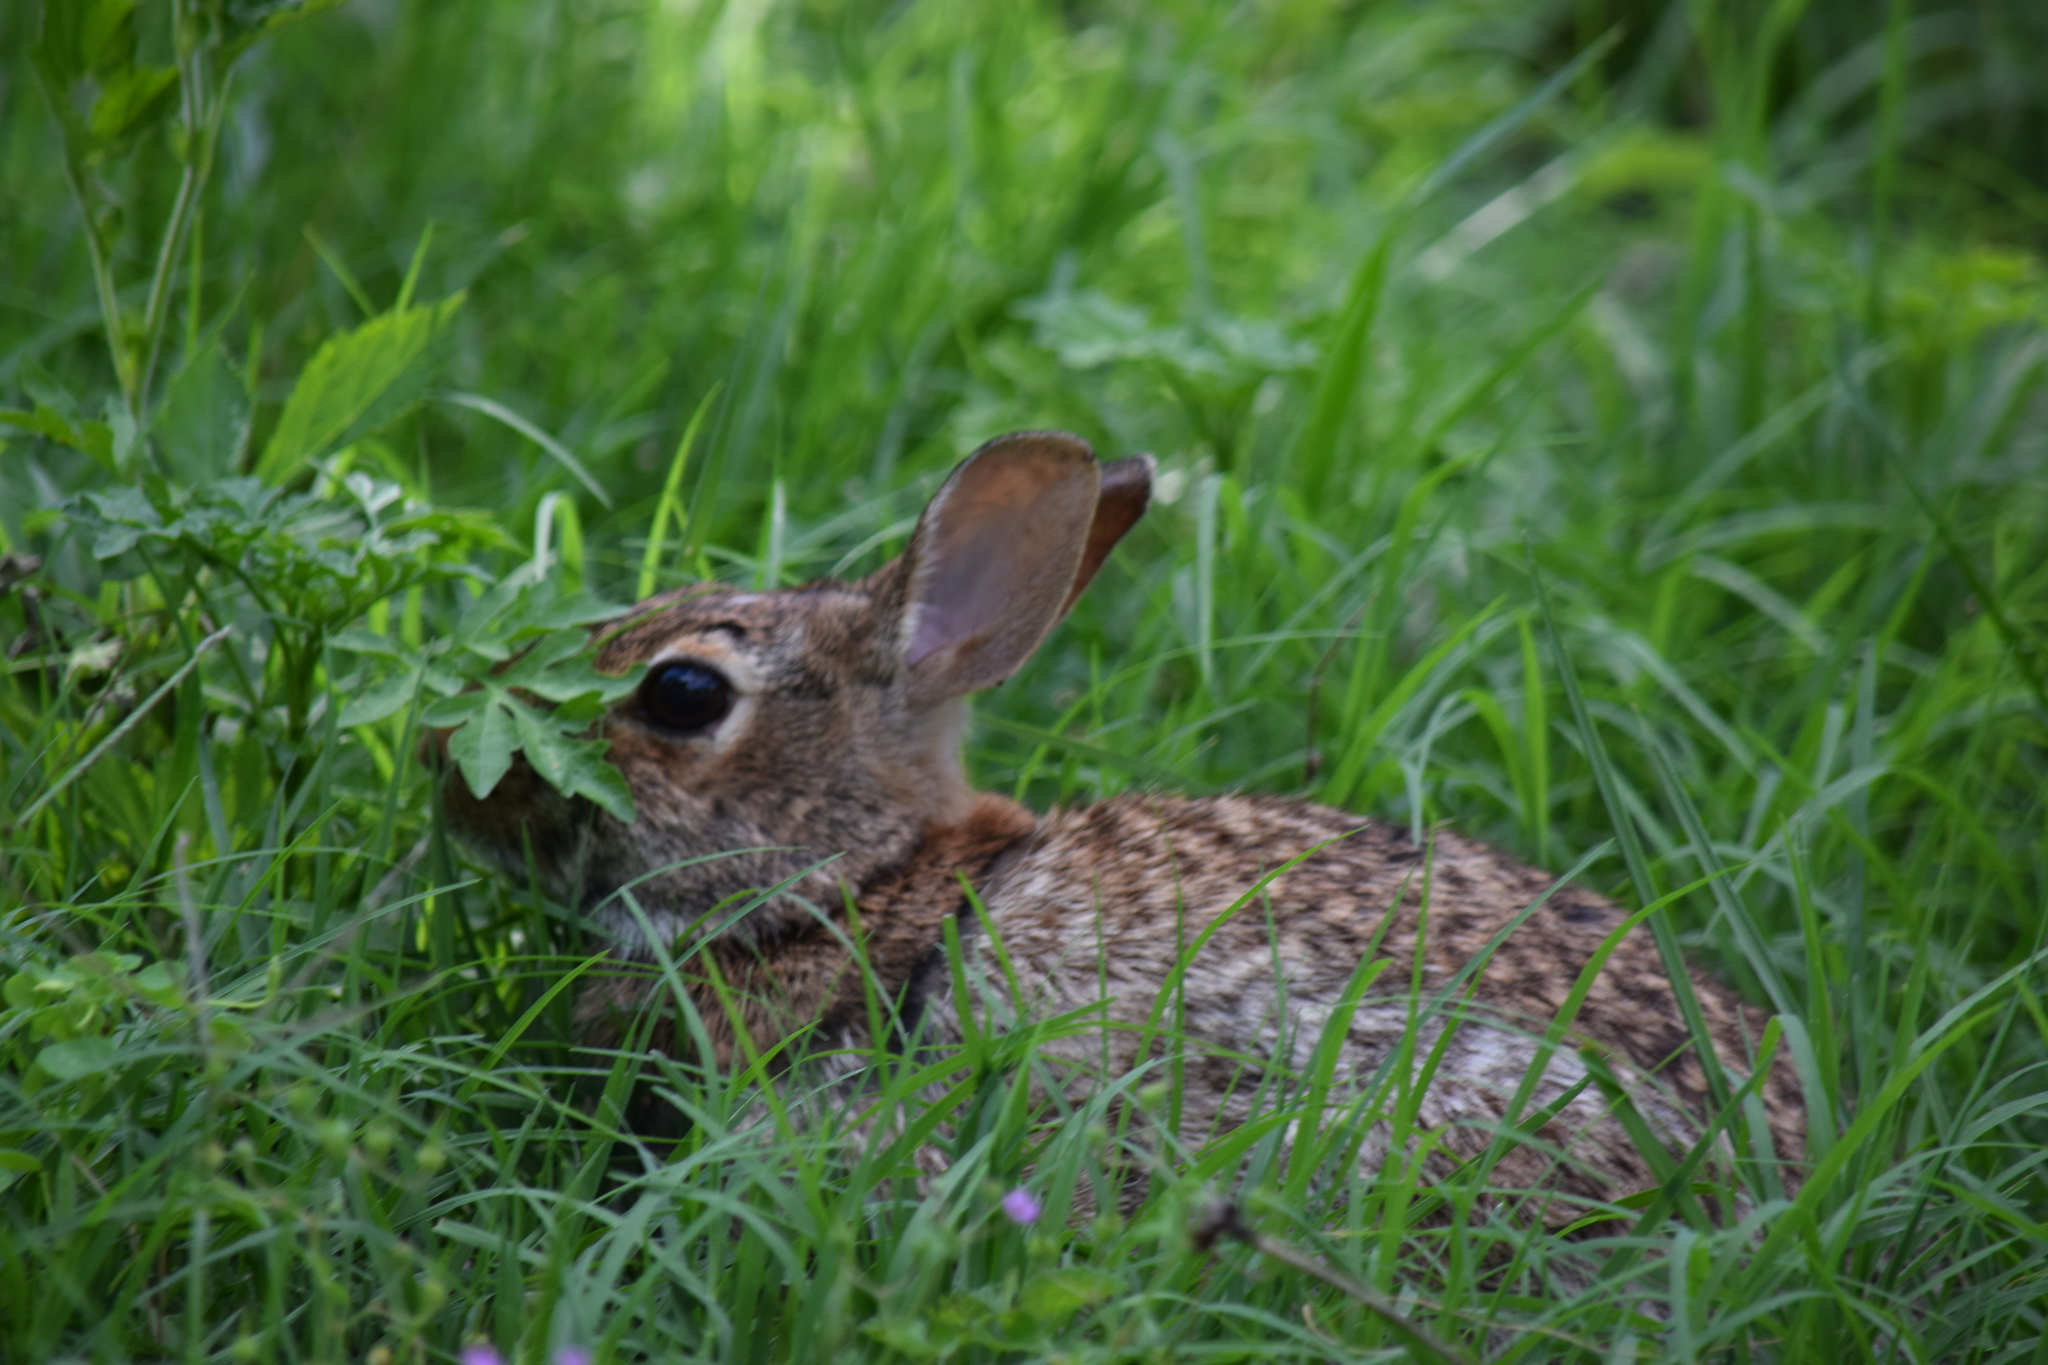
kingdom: Animalia
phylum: Chordata
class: Mammalia
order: Lagomorpha
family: Leporidae
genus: Sylvilagus
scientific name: Sylvilagus floridanus
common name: Eastern cottontail
